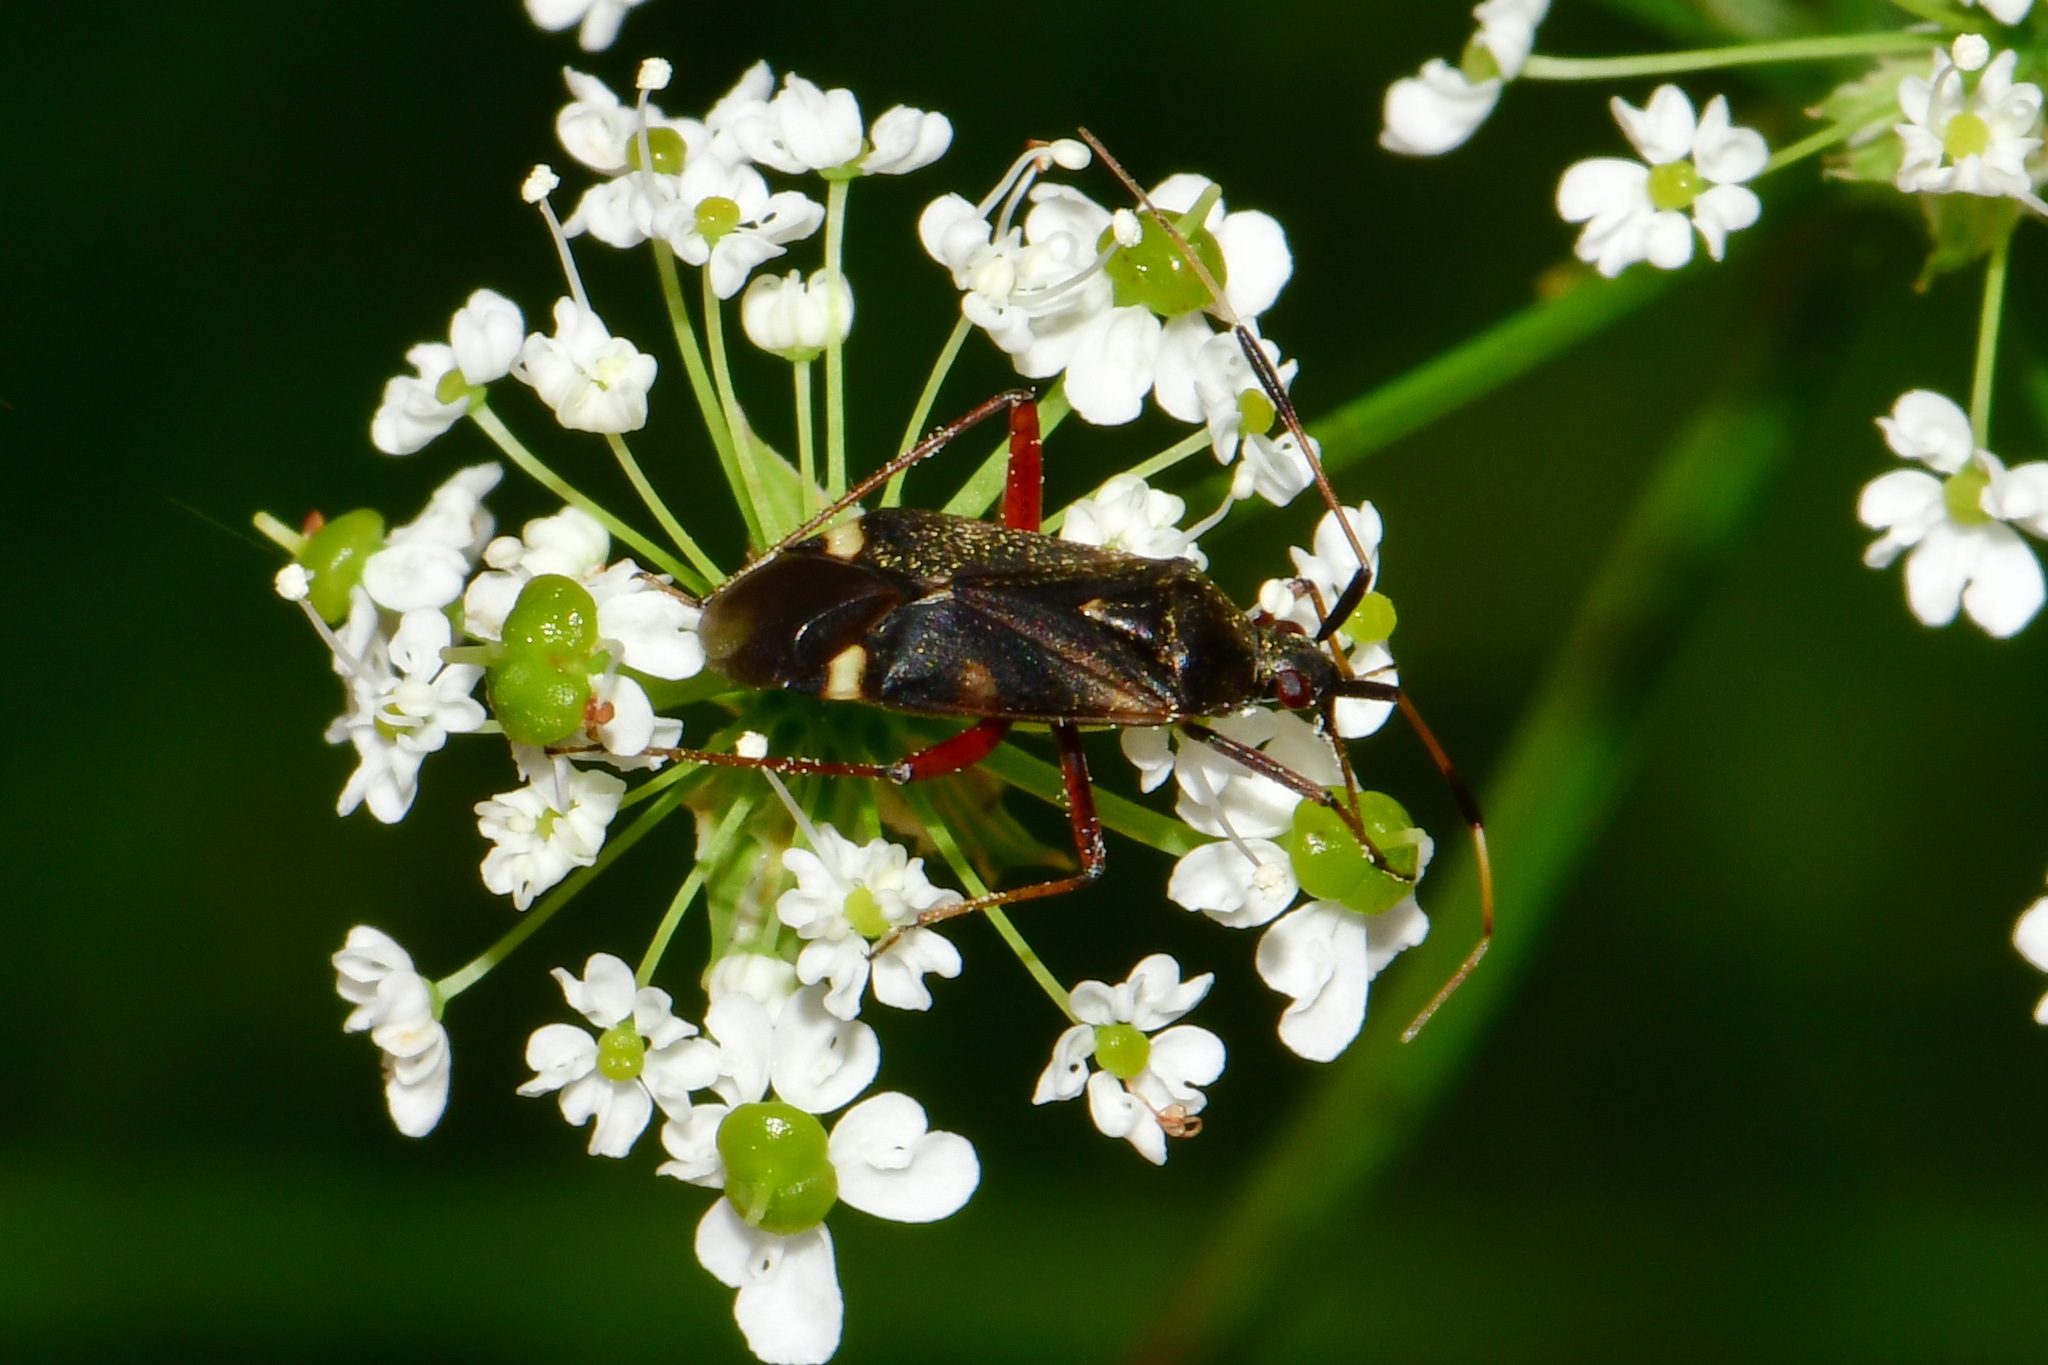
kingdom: Animalia
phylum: Arthropoda
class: Insecta
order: Hemiptera
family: Miridae
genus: Closterotomus
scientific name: Closterotomus biclavatus
